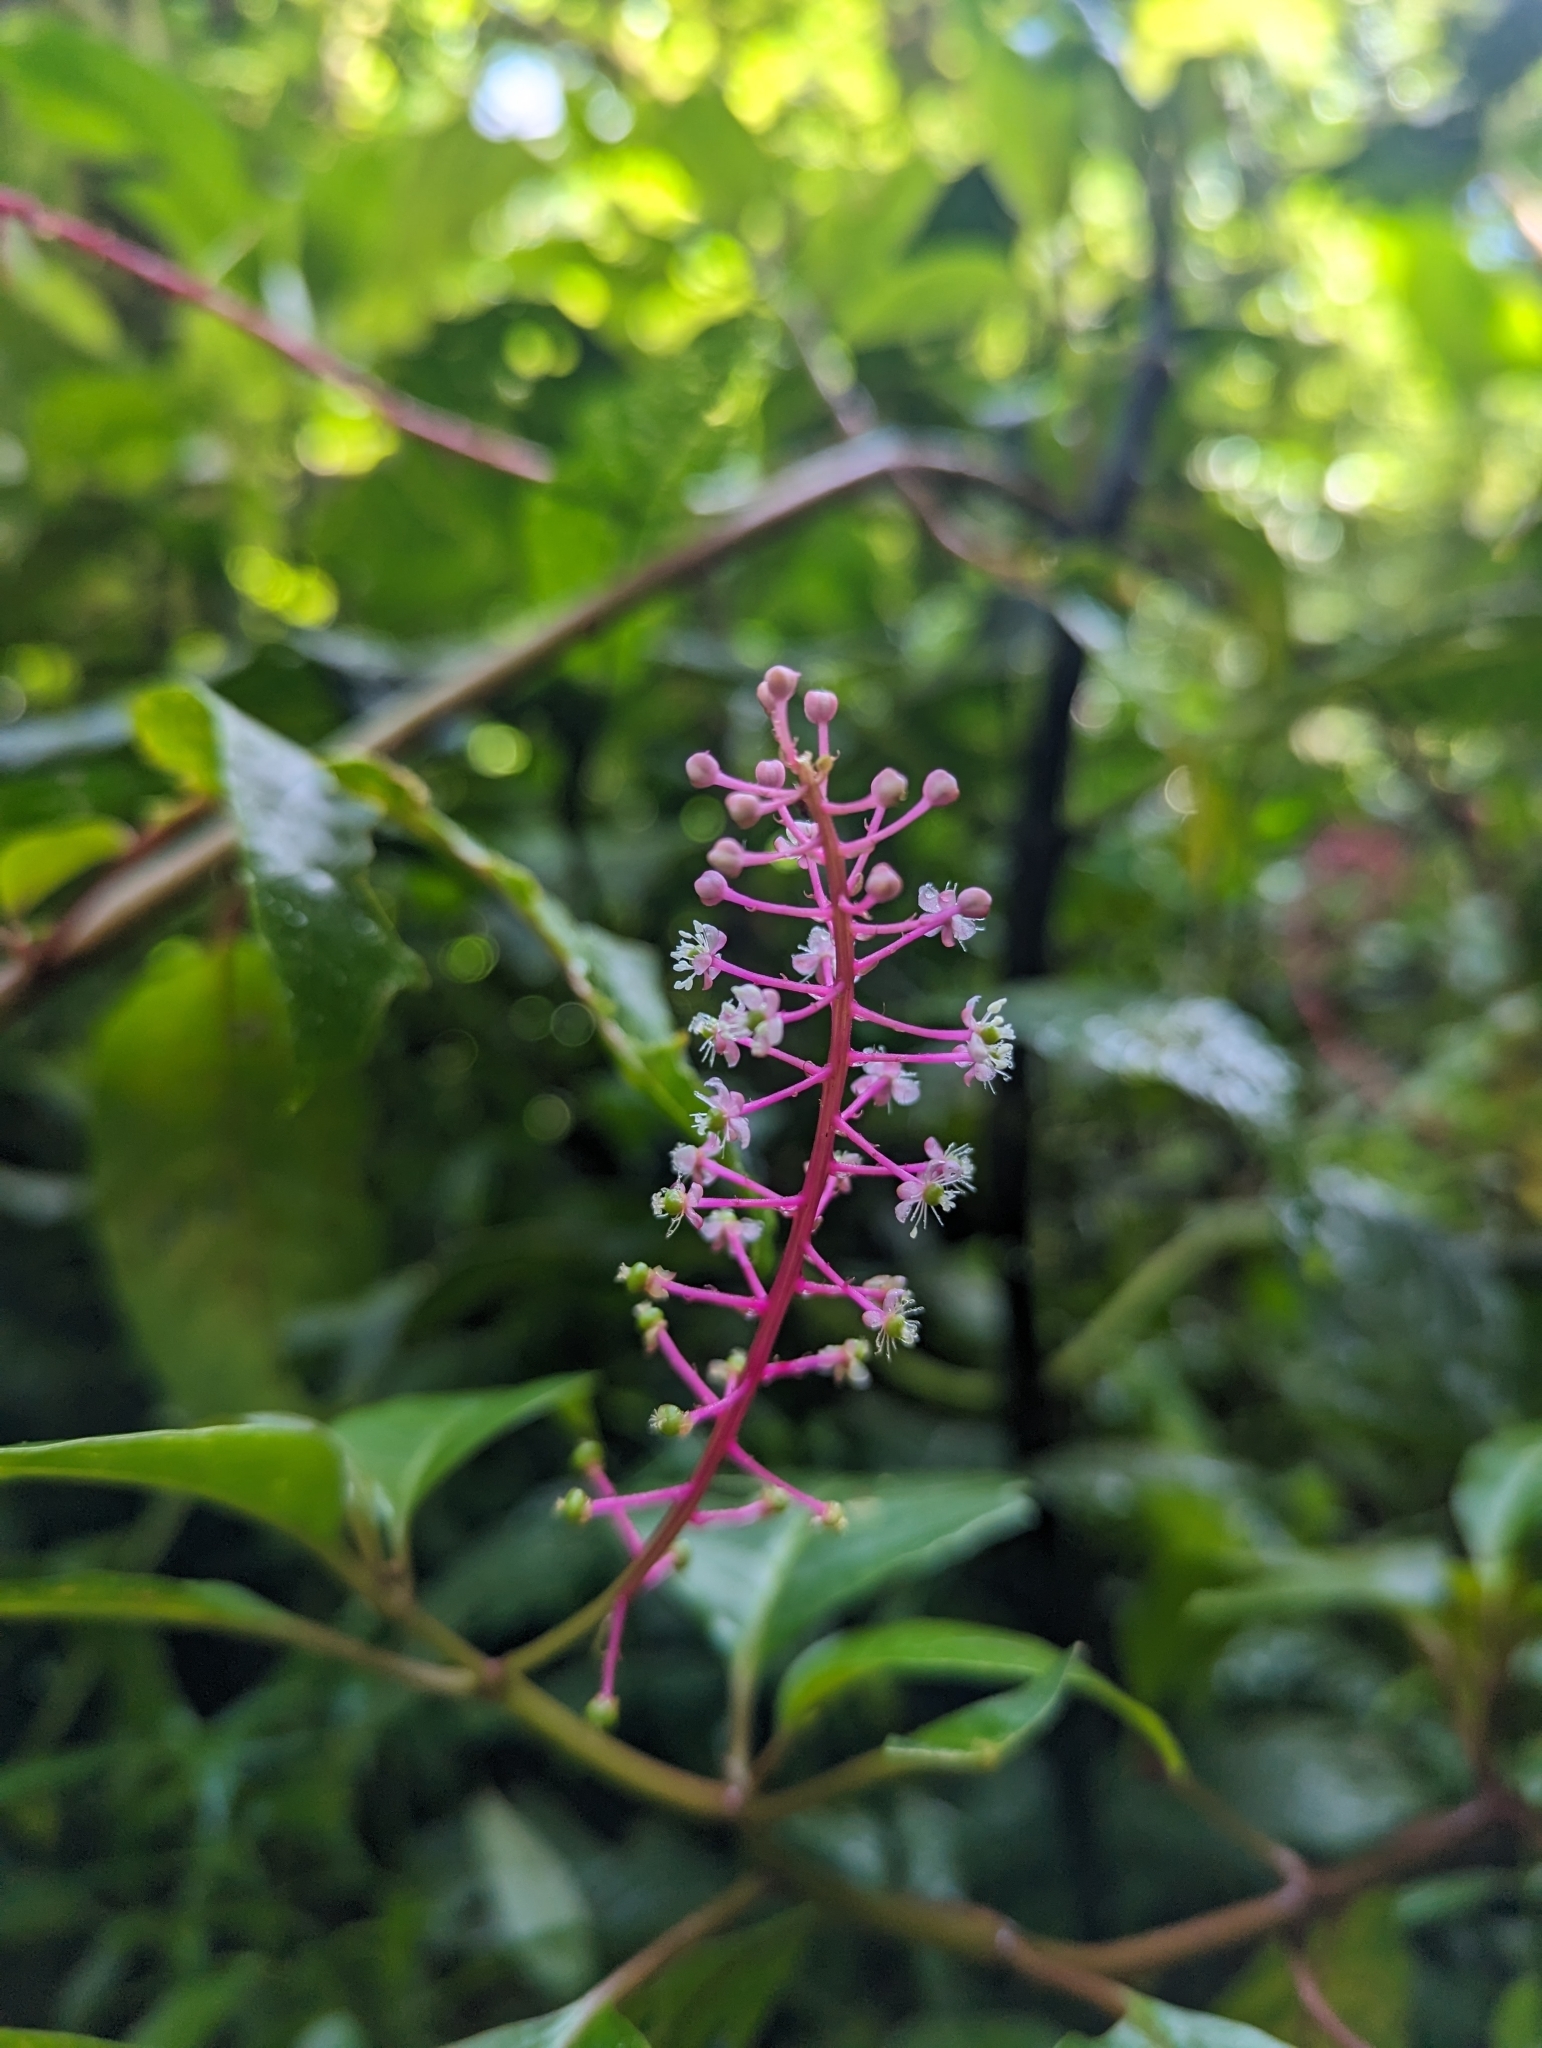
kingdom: Plantae
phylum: Tracheophyta
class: Magnoliopsida
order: Caryophyllales
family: Phytolaccaceae
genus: Phytolacca
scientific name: Phytolacca rivinoides
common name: Venezuelan pokeweed
